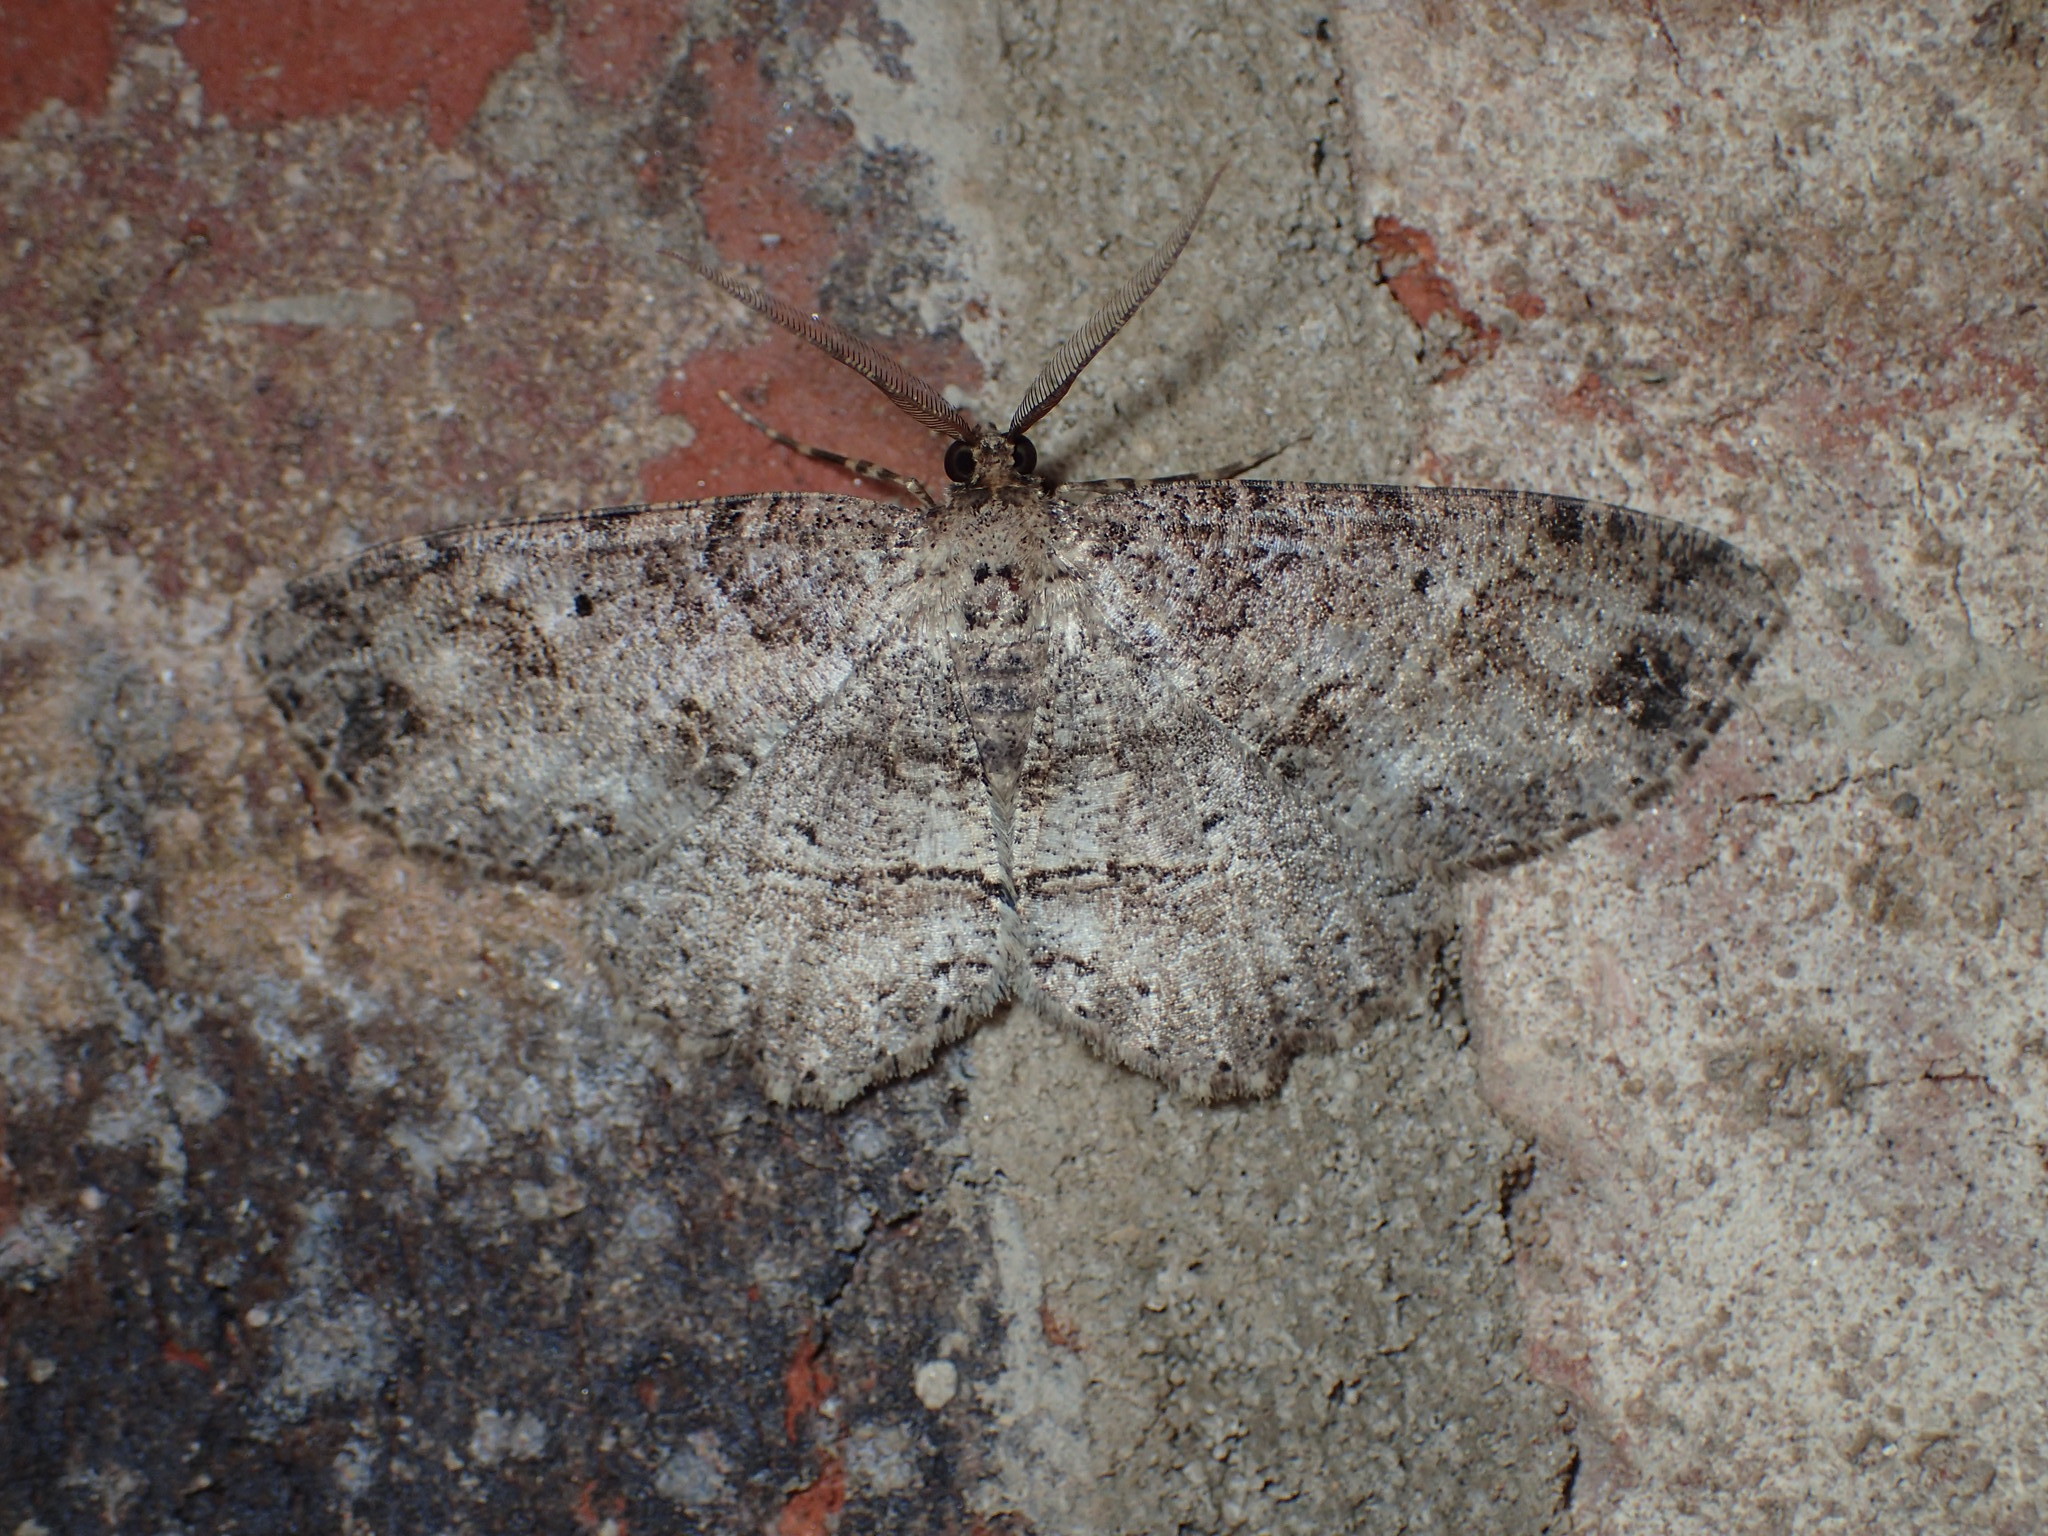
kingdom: Animalia
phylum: Arthropoda
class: Insecta
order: Lepidoptera
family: Geometridae
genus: Melanolophia
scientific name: Melanolophia canadaria
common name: Canadian melanolophia
